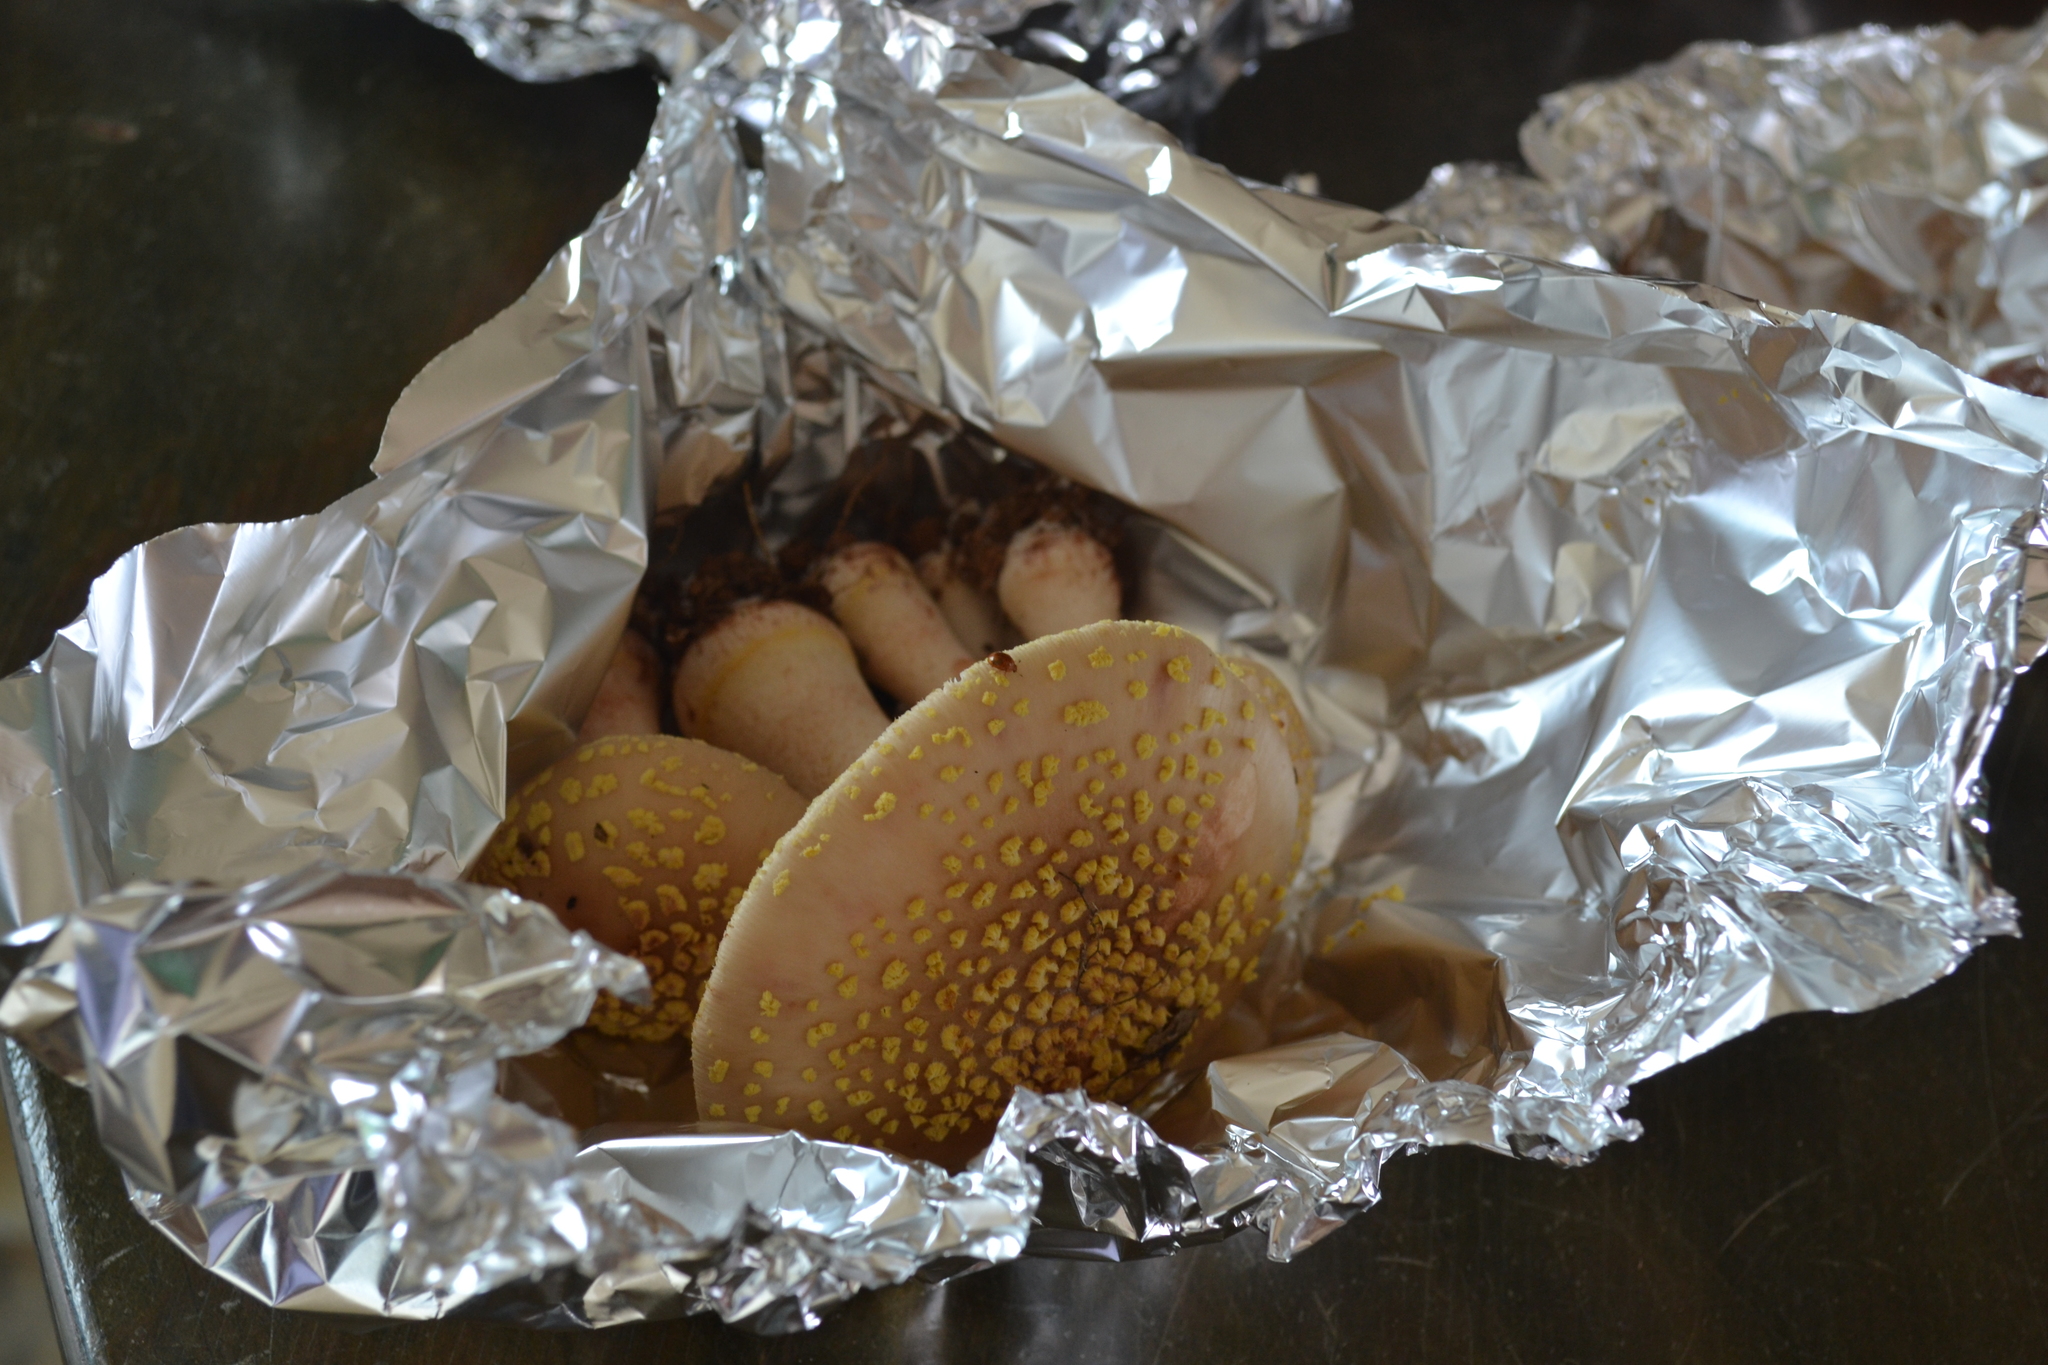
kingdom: Fungi
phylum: Basidiomycota
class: Agaricomycetes
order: Agaricales
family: Amanitaceae
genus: Amanita
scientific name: Amanita flavorubens
